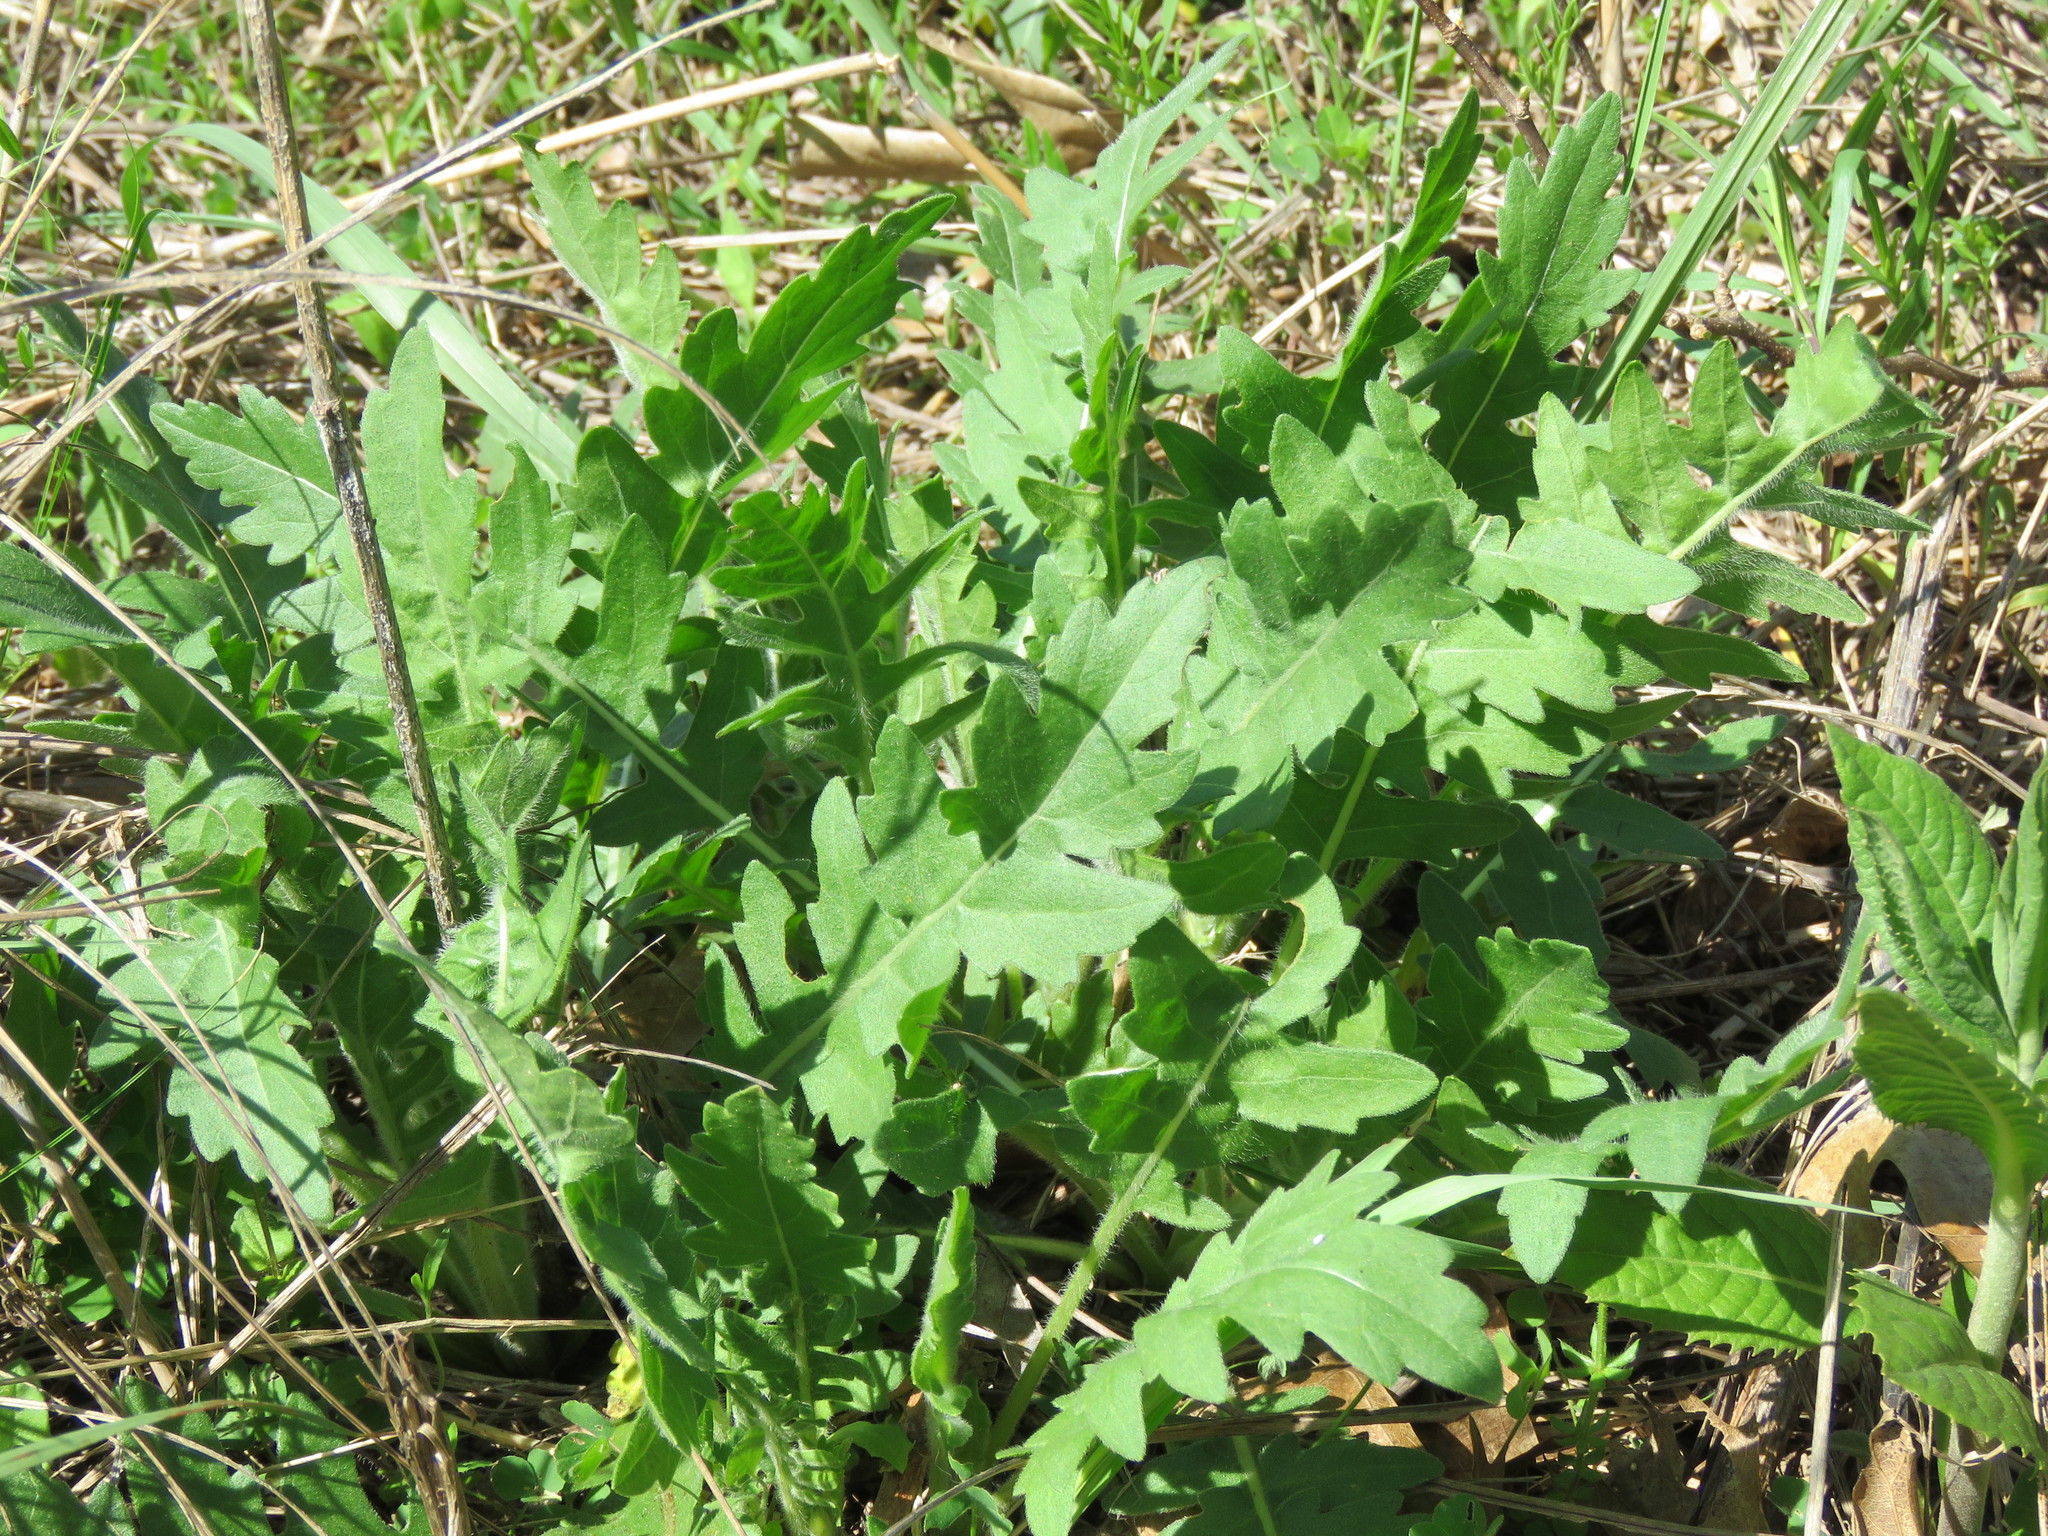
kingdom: Plantae
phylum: Tracheophyta
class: Magnoliopsida
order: Asterales
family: Asteraceae
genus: Engelmannia
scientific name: Engelmannia peristenia
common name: Engelmann's daisy
